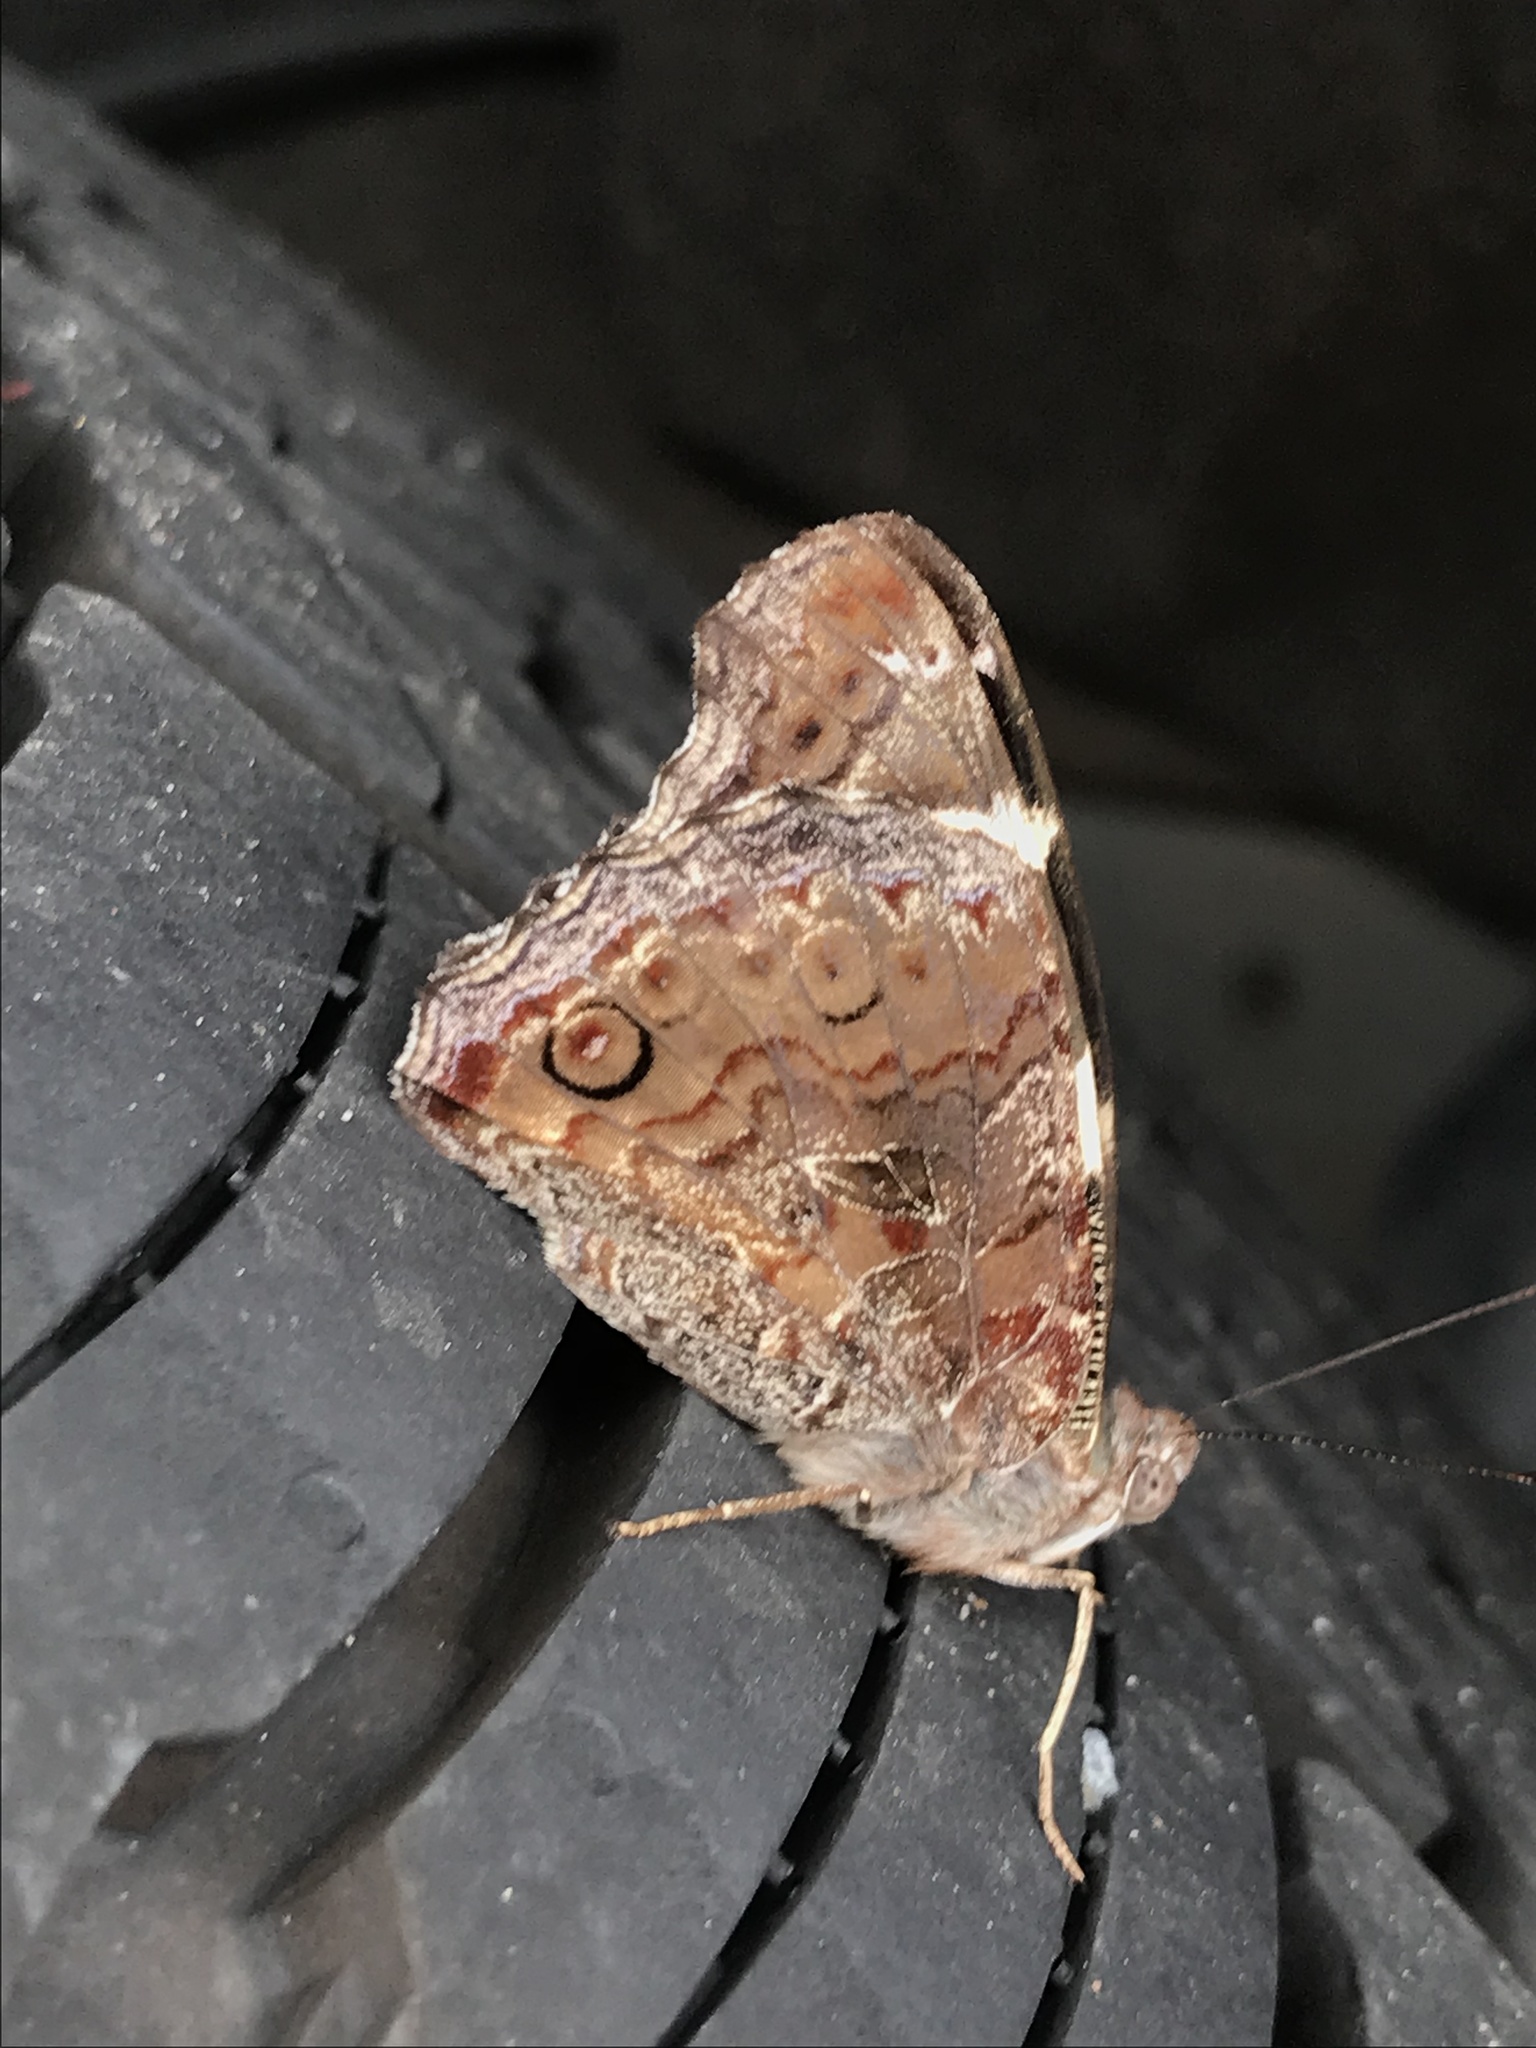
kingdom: Animalia
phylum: Arthropoda
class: Insecta
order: Lepidoptera
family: Nymphalidae
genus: Vanessa
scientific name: Vanessa itea
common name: Yellow admiral
